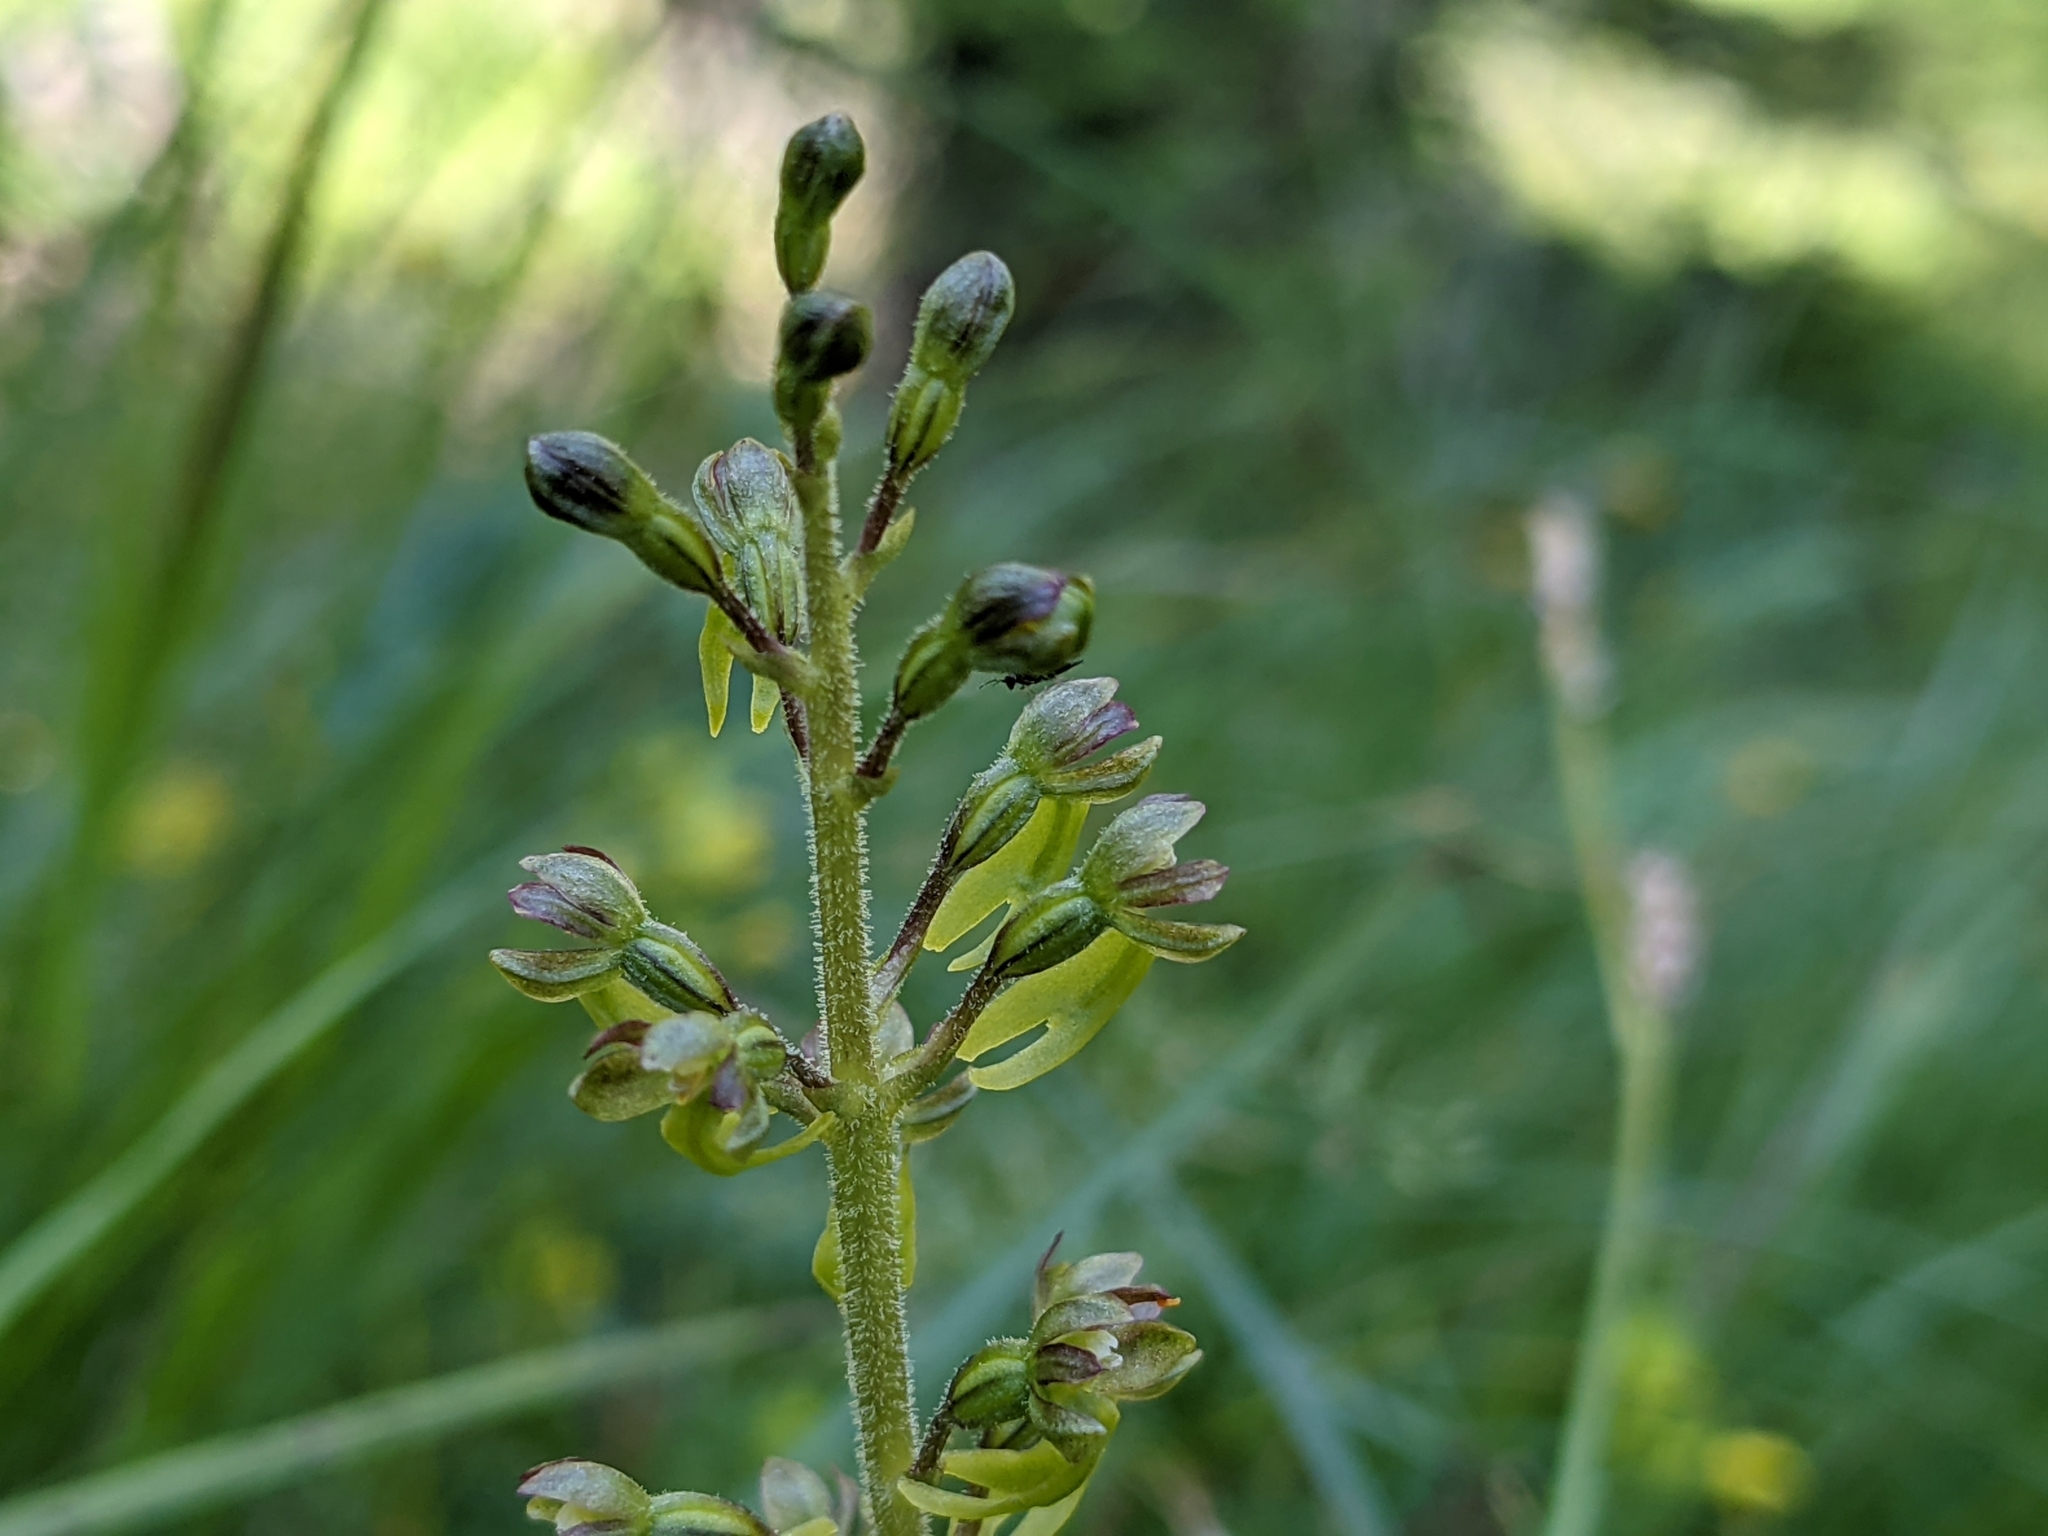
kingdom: Plantae
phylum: Tracheophyta
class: Liliopsida
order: Asparagales
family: Orchidaceae
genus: Neottia
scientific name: Neottia ovata
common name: Common twayblade
